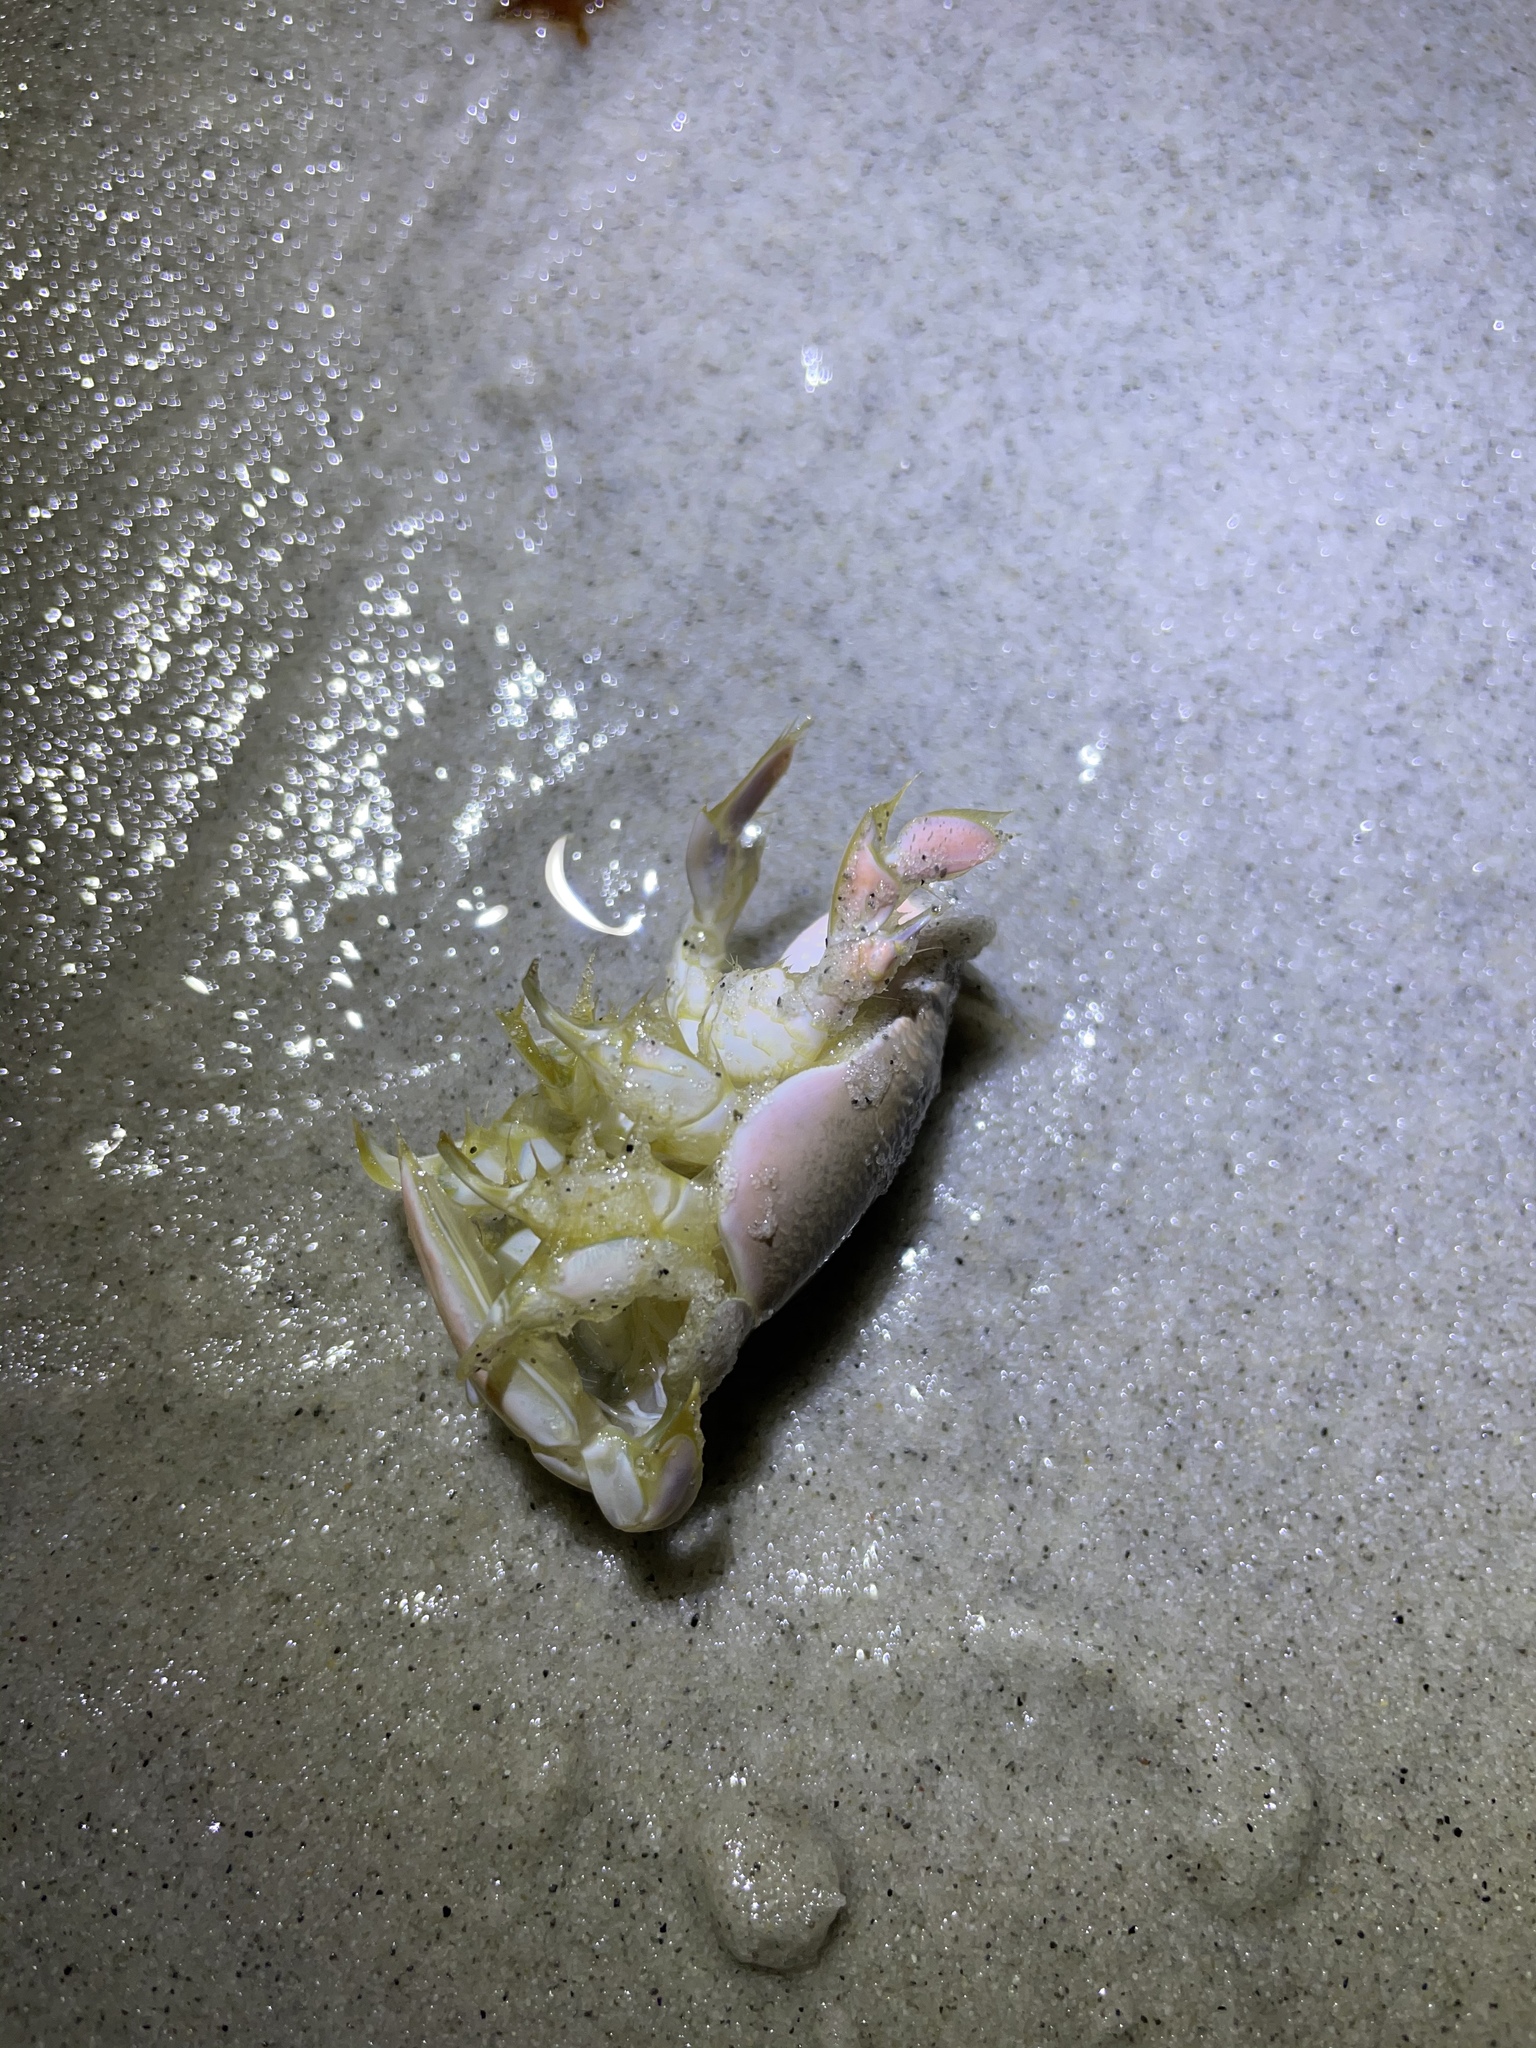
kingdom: Animalia
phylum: Arthropoda
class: Malacostraca
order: Decapoda
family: Hippidae
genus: Emerita
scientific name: Emerita analoga
